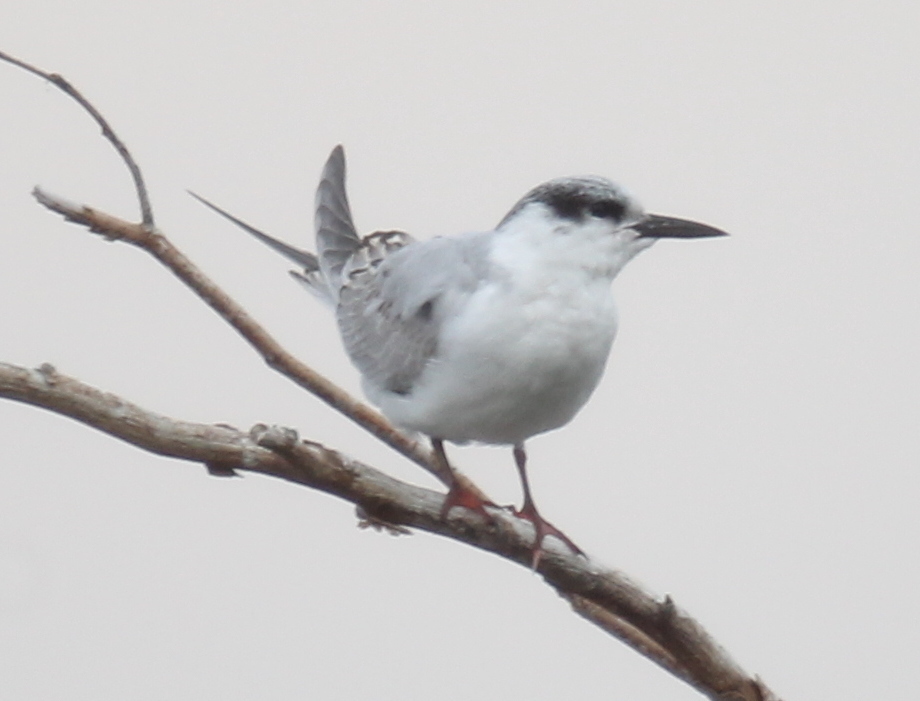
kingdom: Animalia
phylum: Chordata
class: Aves
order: Charadriiformes
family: Laridae
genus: Chlidonias
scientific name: Chlidonias hybrida
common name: Whiskered tern
